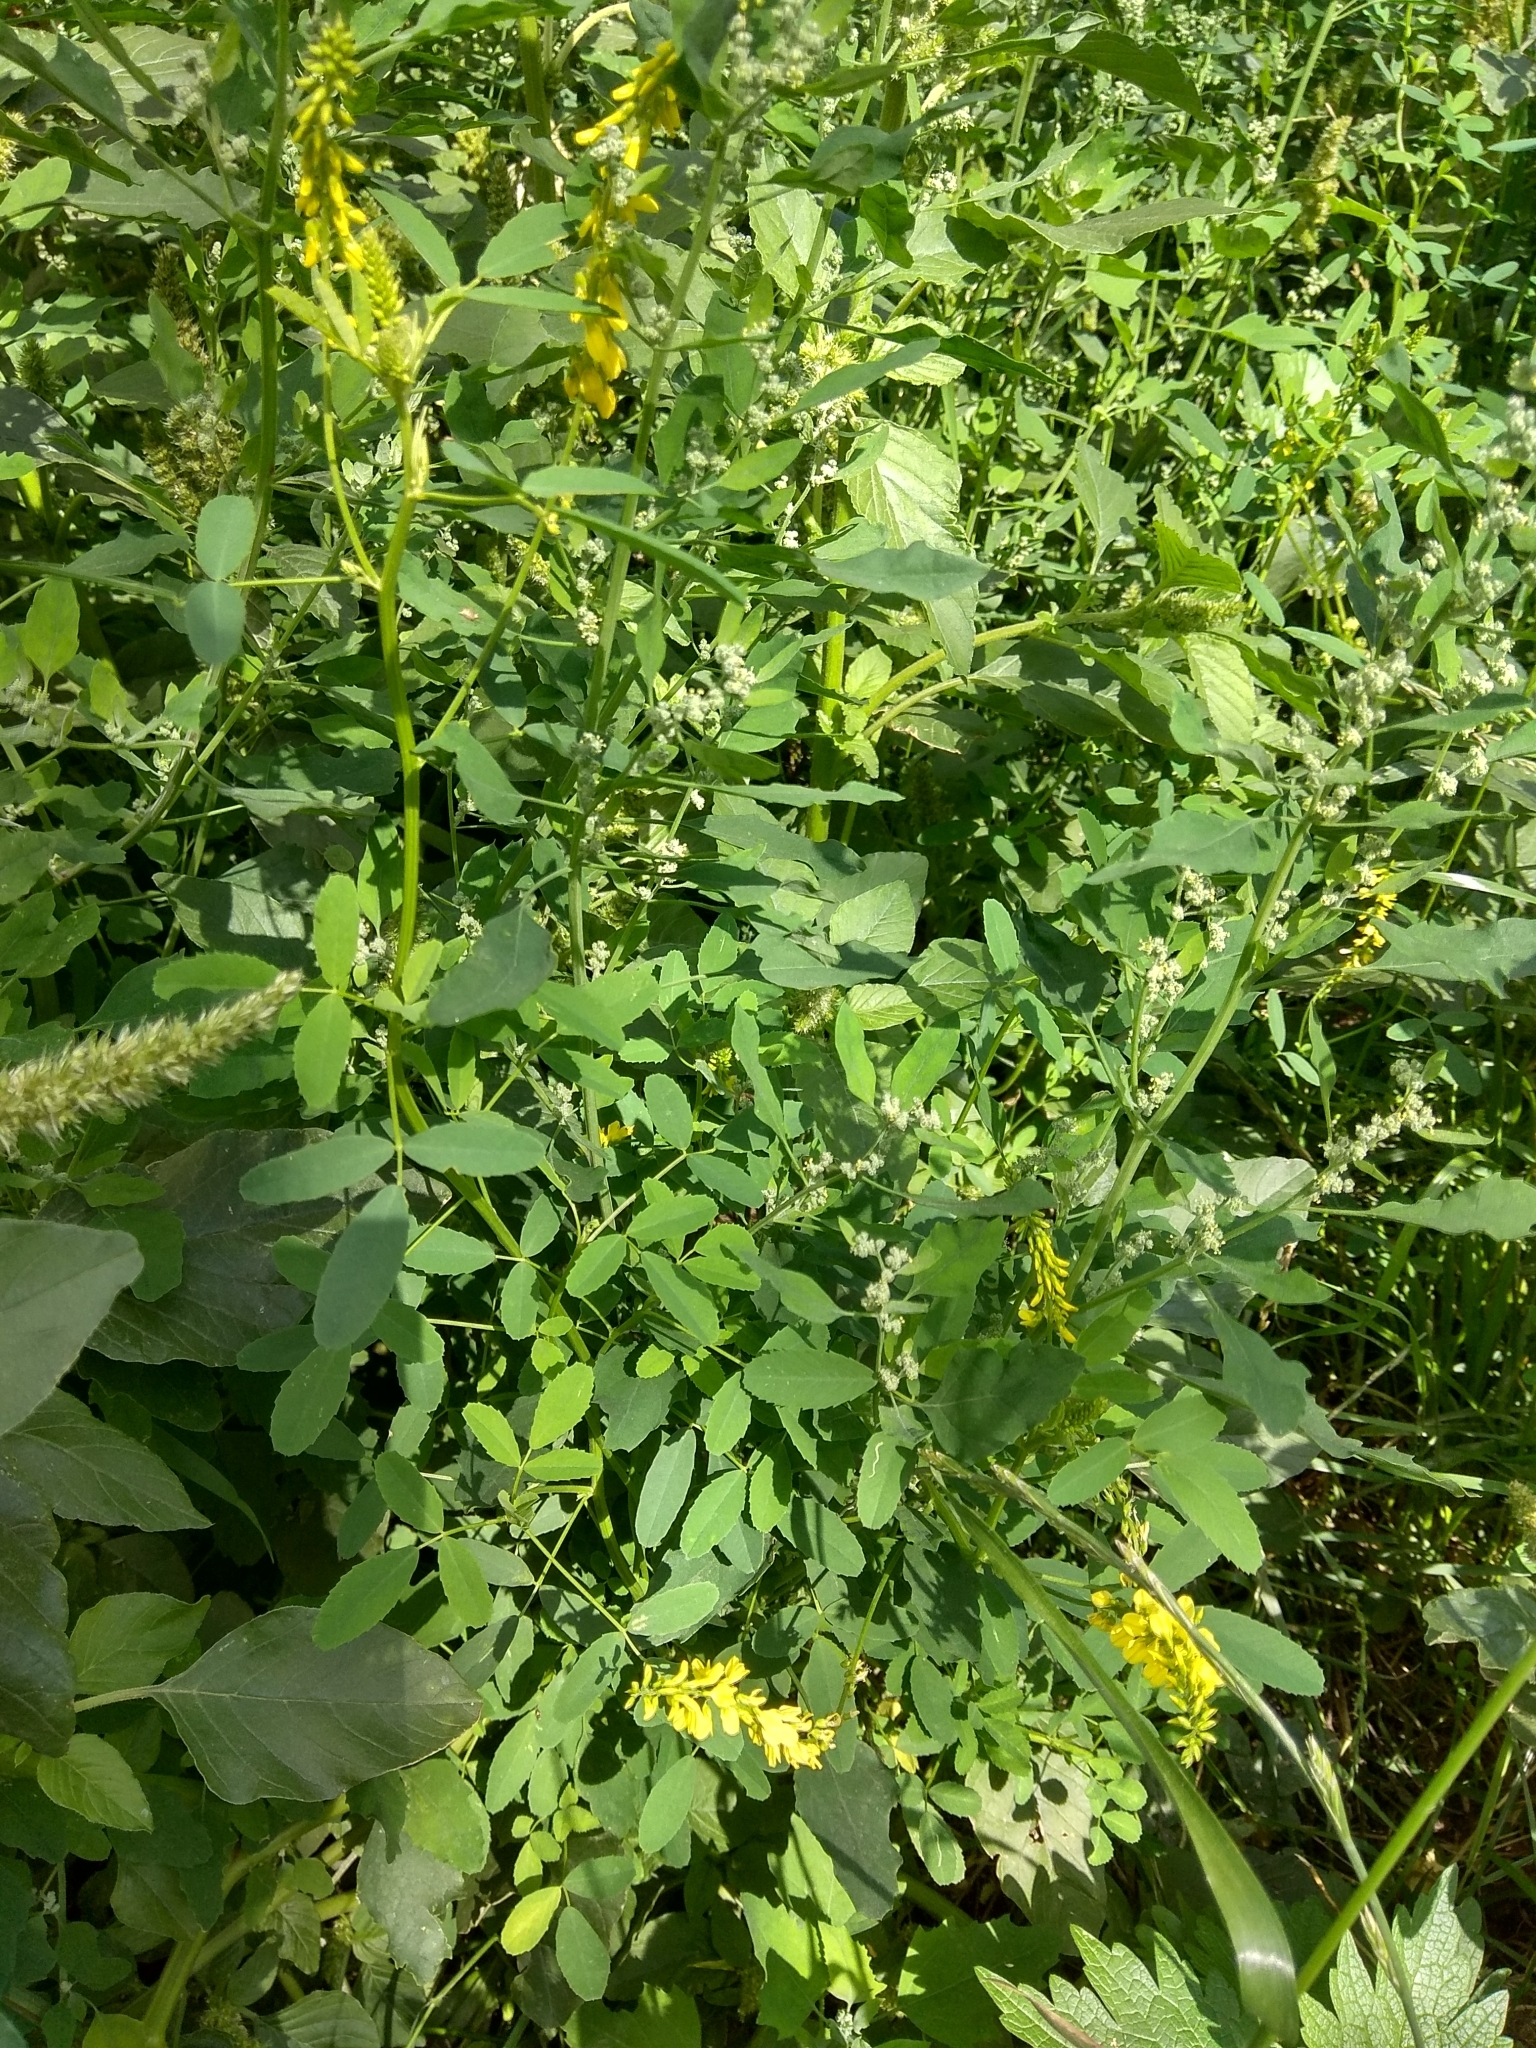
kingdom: Plantae
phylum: Tracheophyta
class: Magnoliopsida
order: Fabales
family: Fabaceae
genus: Melilotus
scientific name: Melilotus officinalis
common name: Sweetclover
